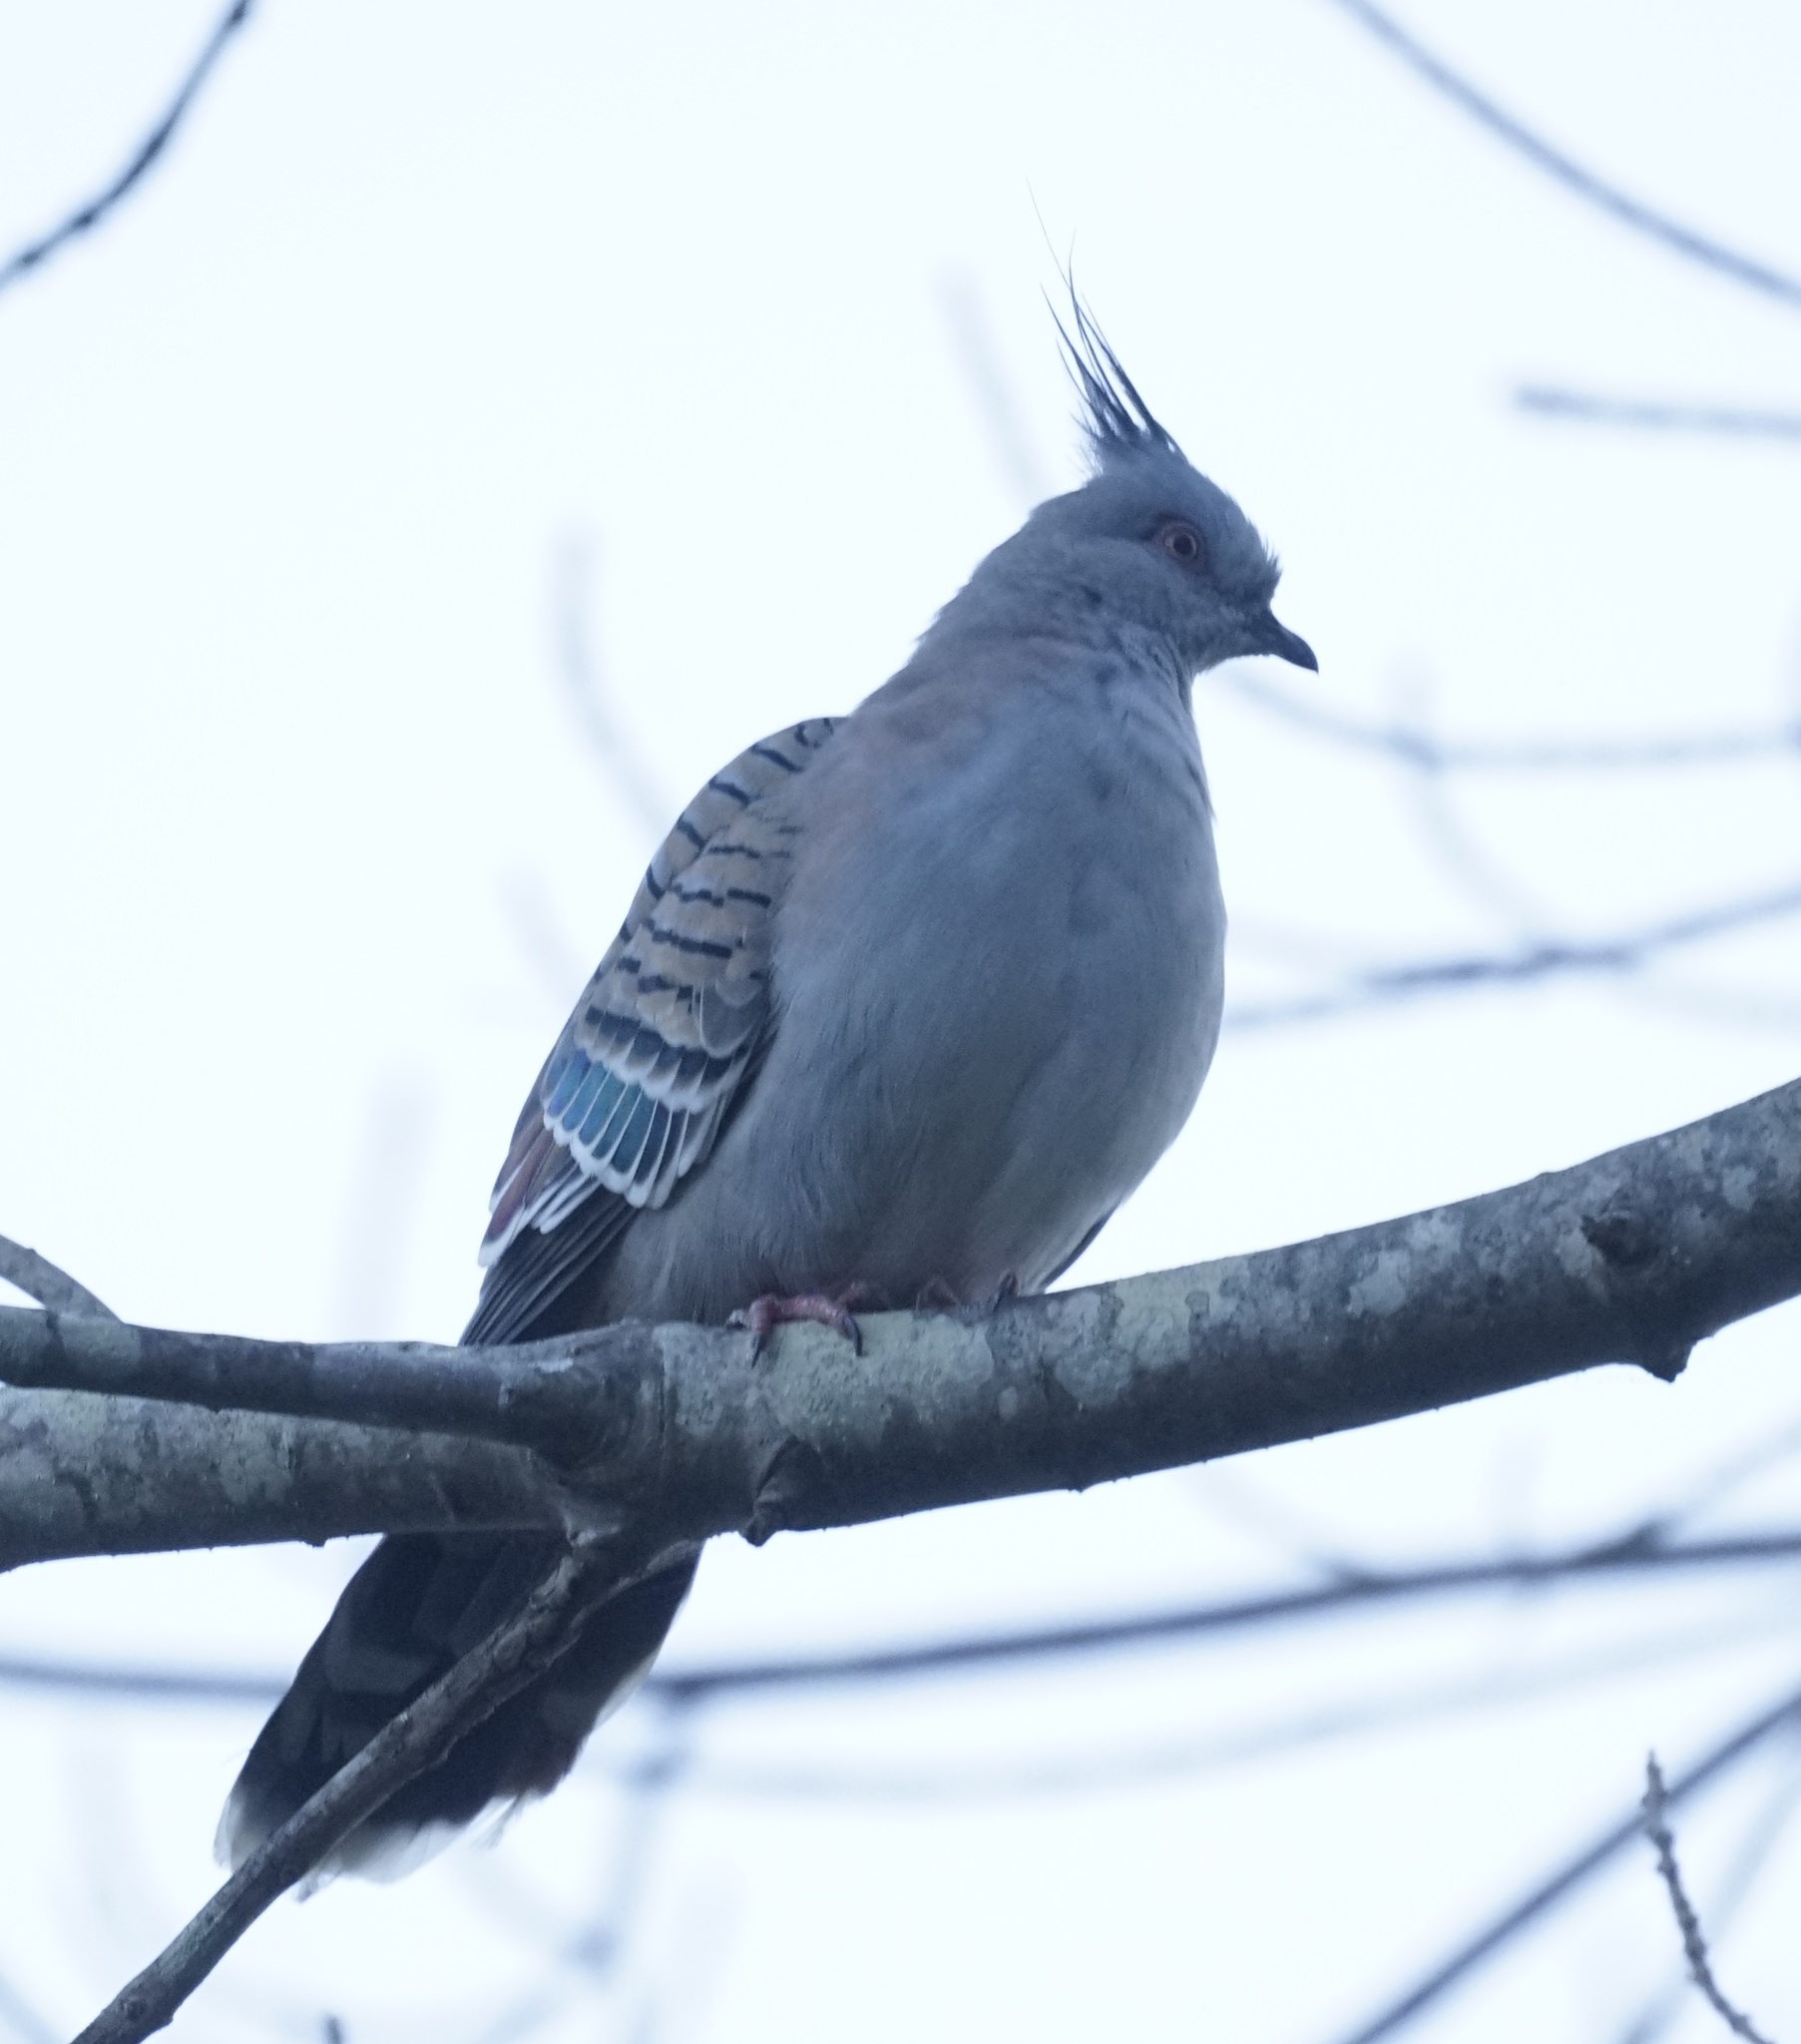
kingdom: Animalia
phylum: Chordata
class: Aves
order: Columbiformes
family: Columbidae
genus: Ocyphaps
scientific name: Ocyphaps lophotes
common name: Crested pigeon
